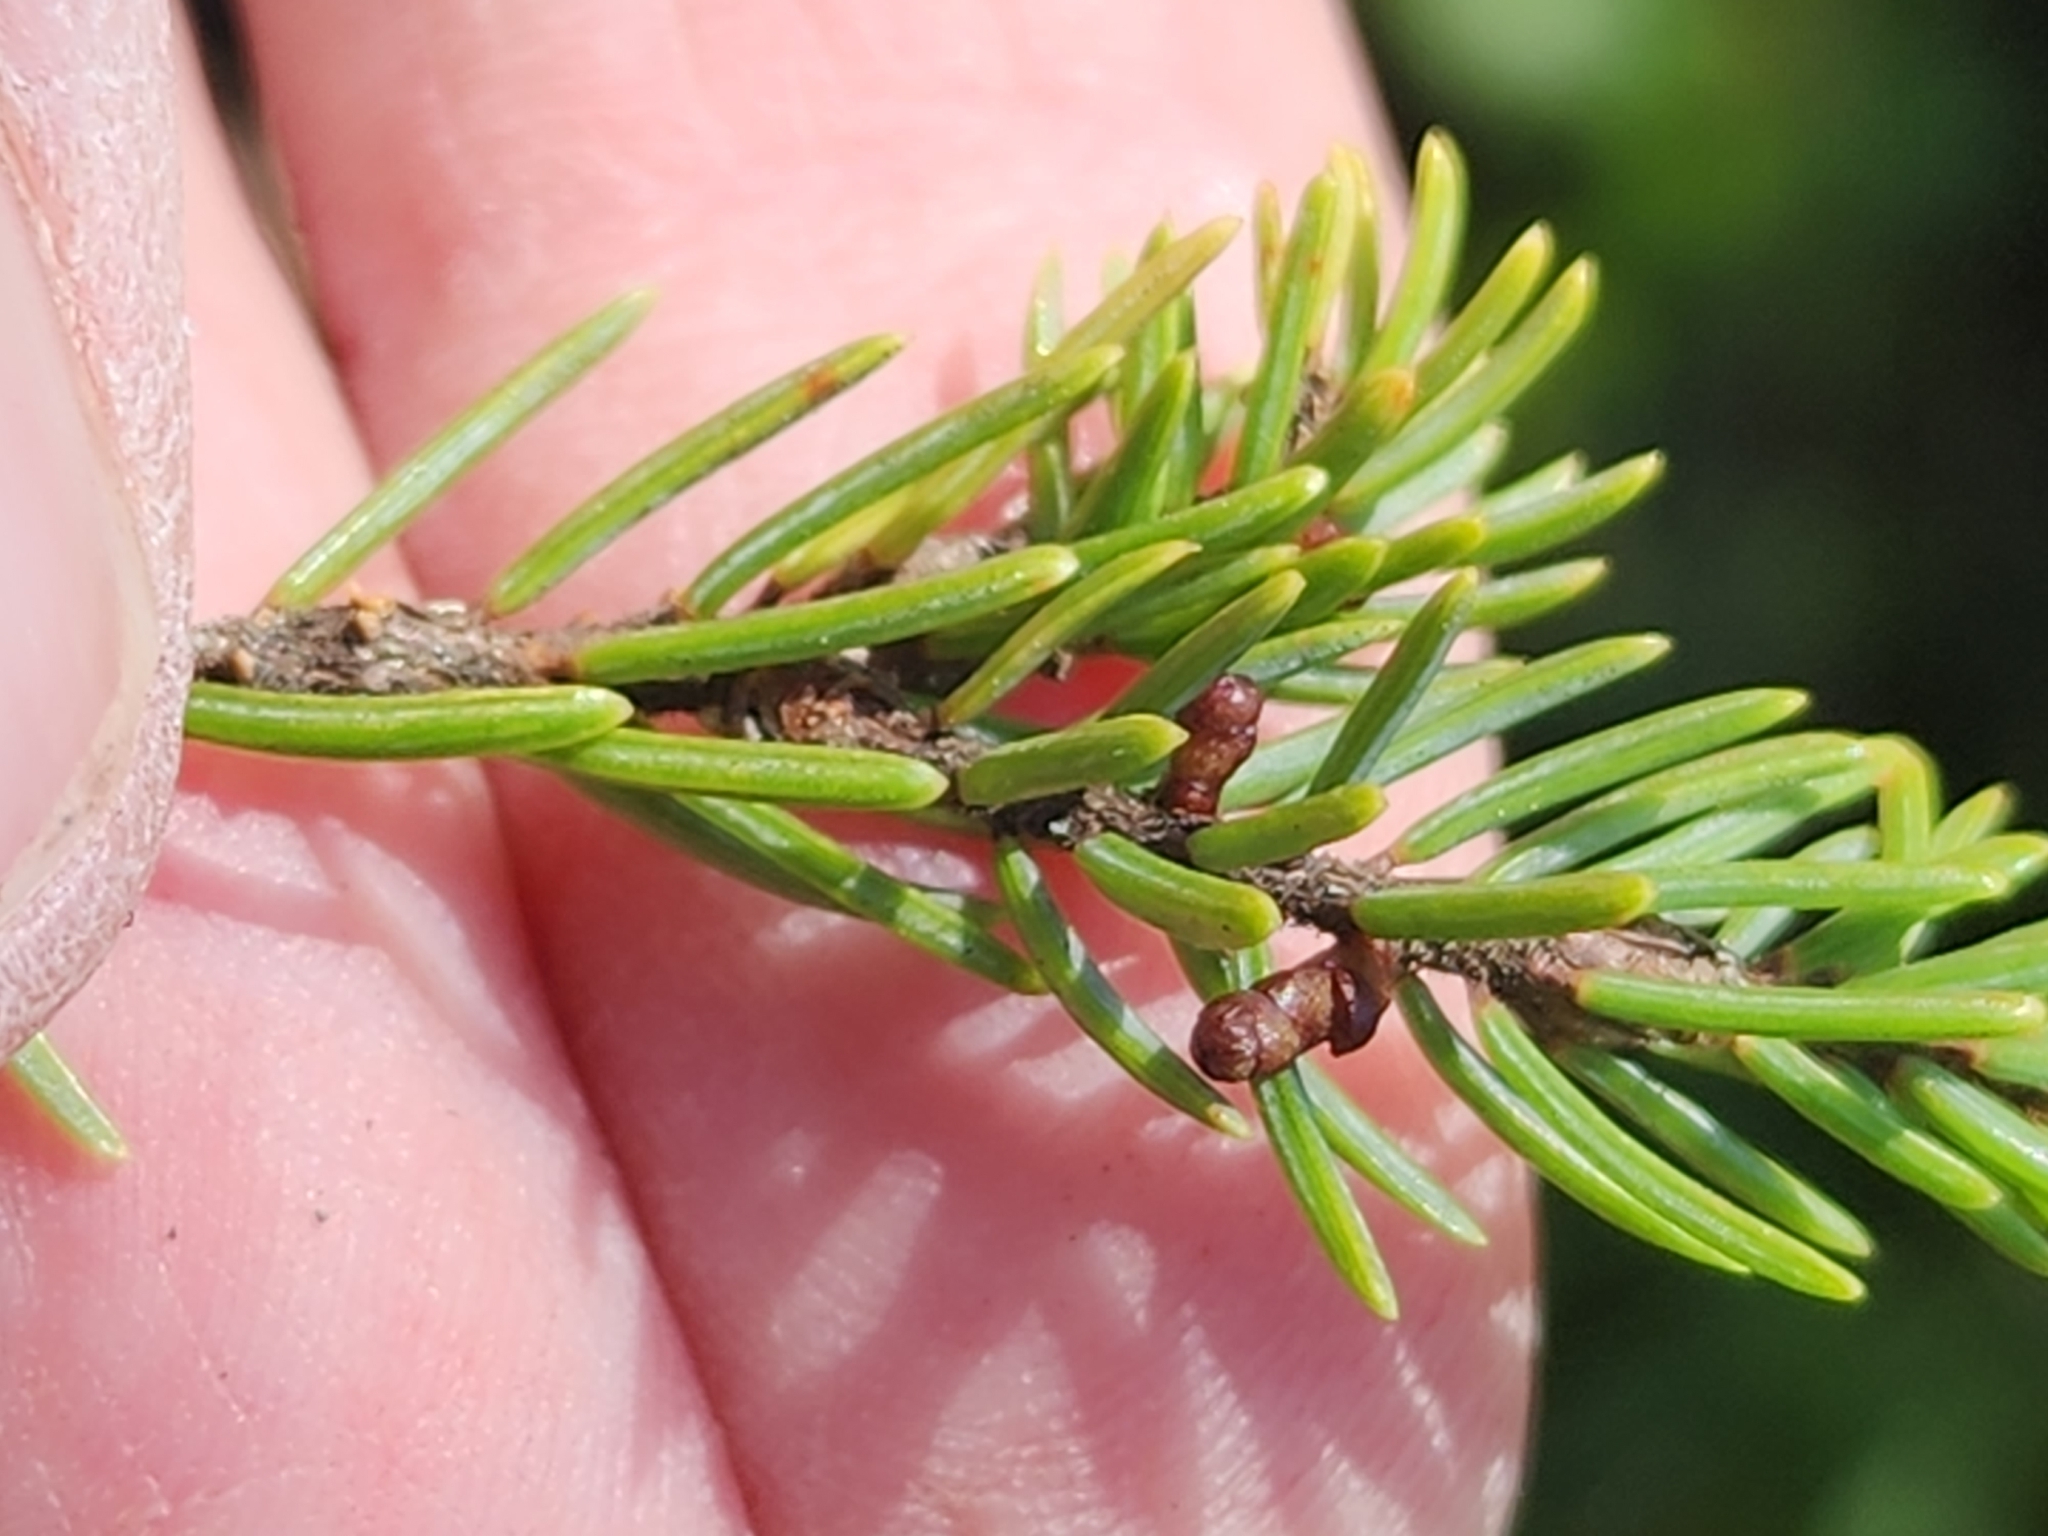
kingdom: Plantae
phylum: Tracheophyta
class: Magnoliopsida
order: Santalales
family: Viscaceae
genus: Arceuthobium
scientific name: Arceuthobium pusillum
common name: Dwarf-mistletoe
